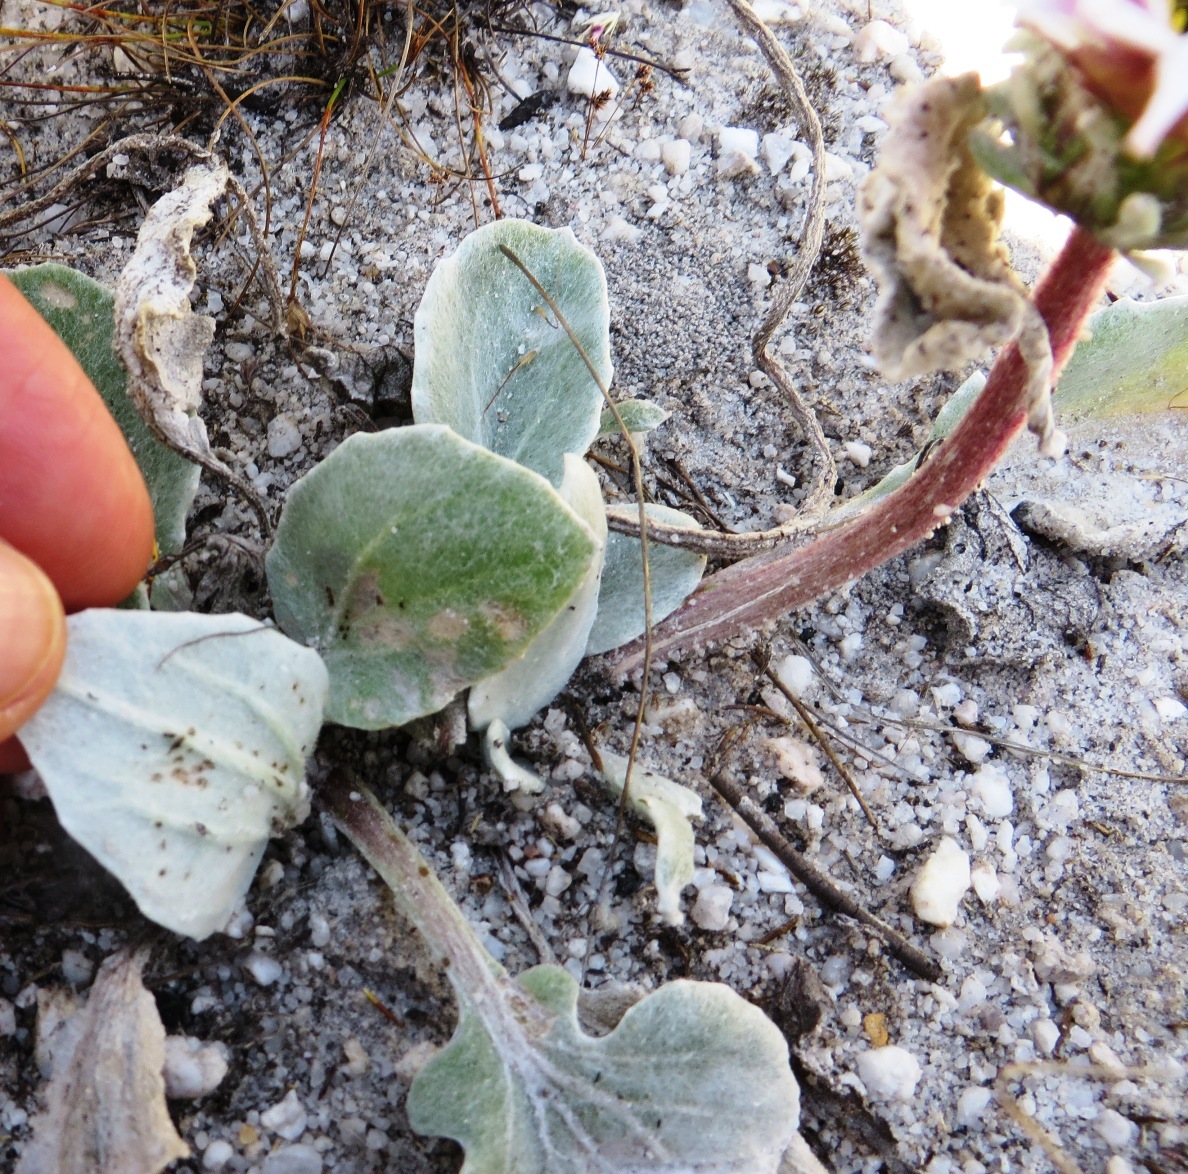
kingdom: Plantae
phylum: Tracheophyta
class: Magnoliopsida
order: Asterales
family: Asteraceae
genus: Arctotis
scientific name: Arctotis verbascifolia
